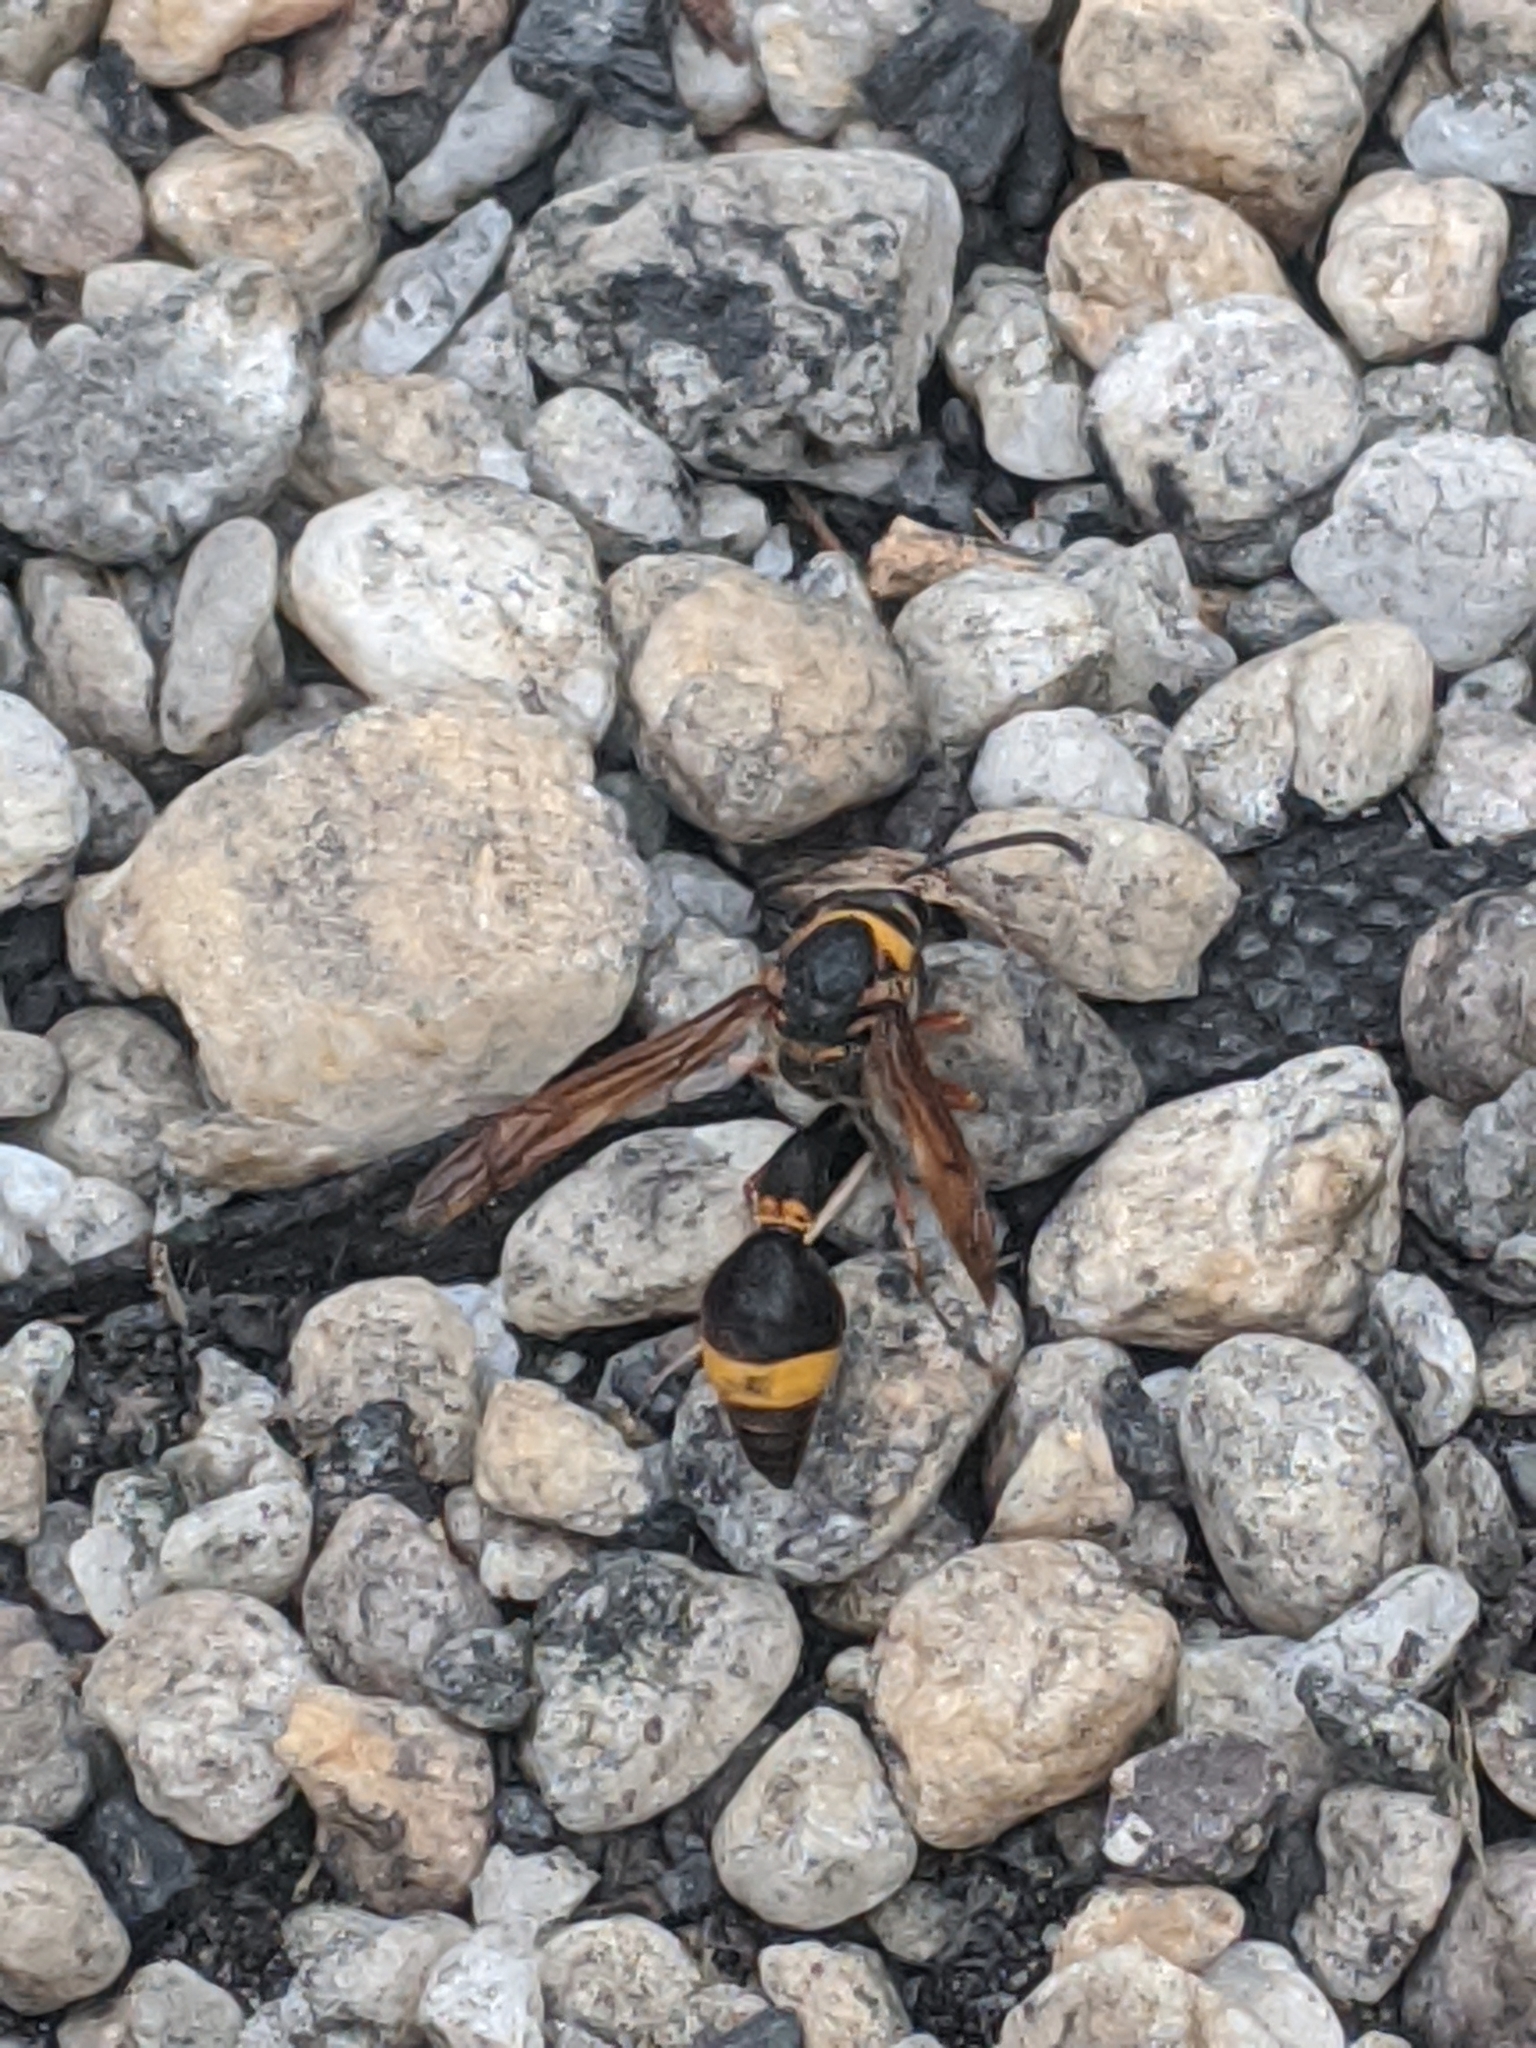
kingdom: Animalia
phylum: Arthropoda
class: Insecta
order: Hymenoptera
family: Eumenidae
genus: Oreumenes
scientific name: Oreumenes decoratus
